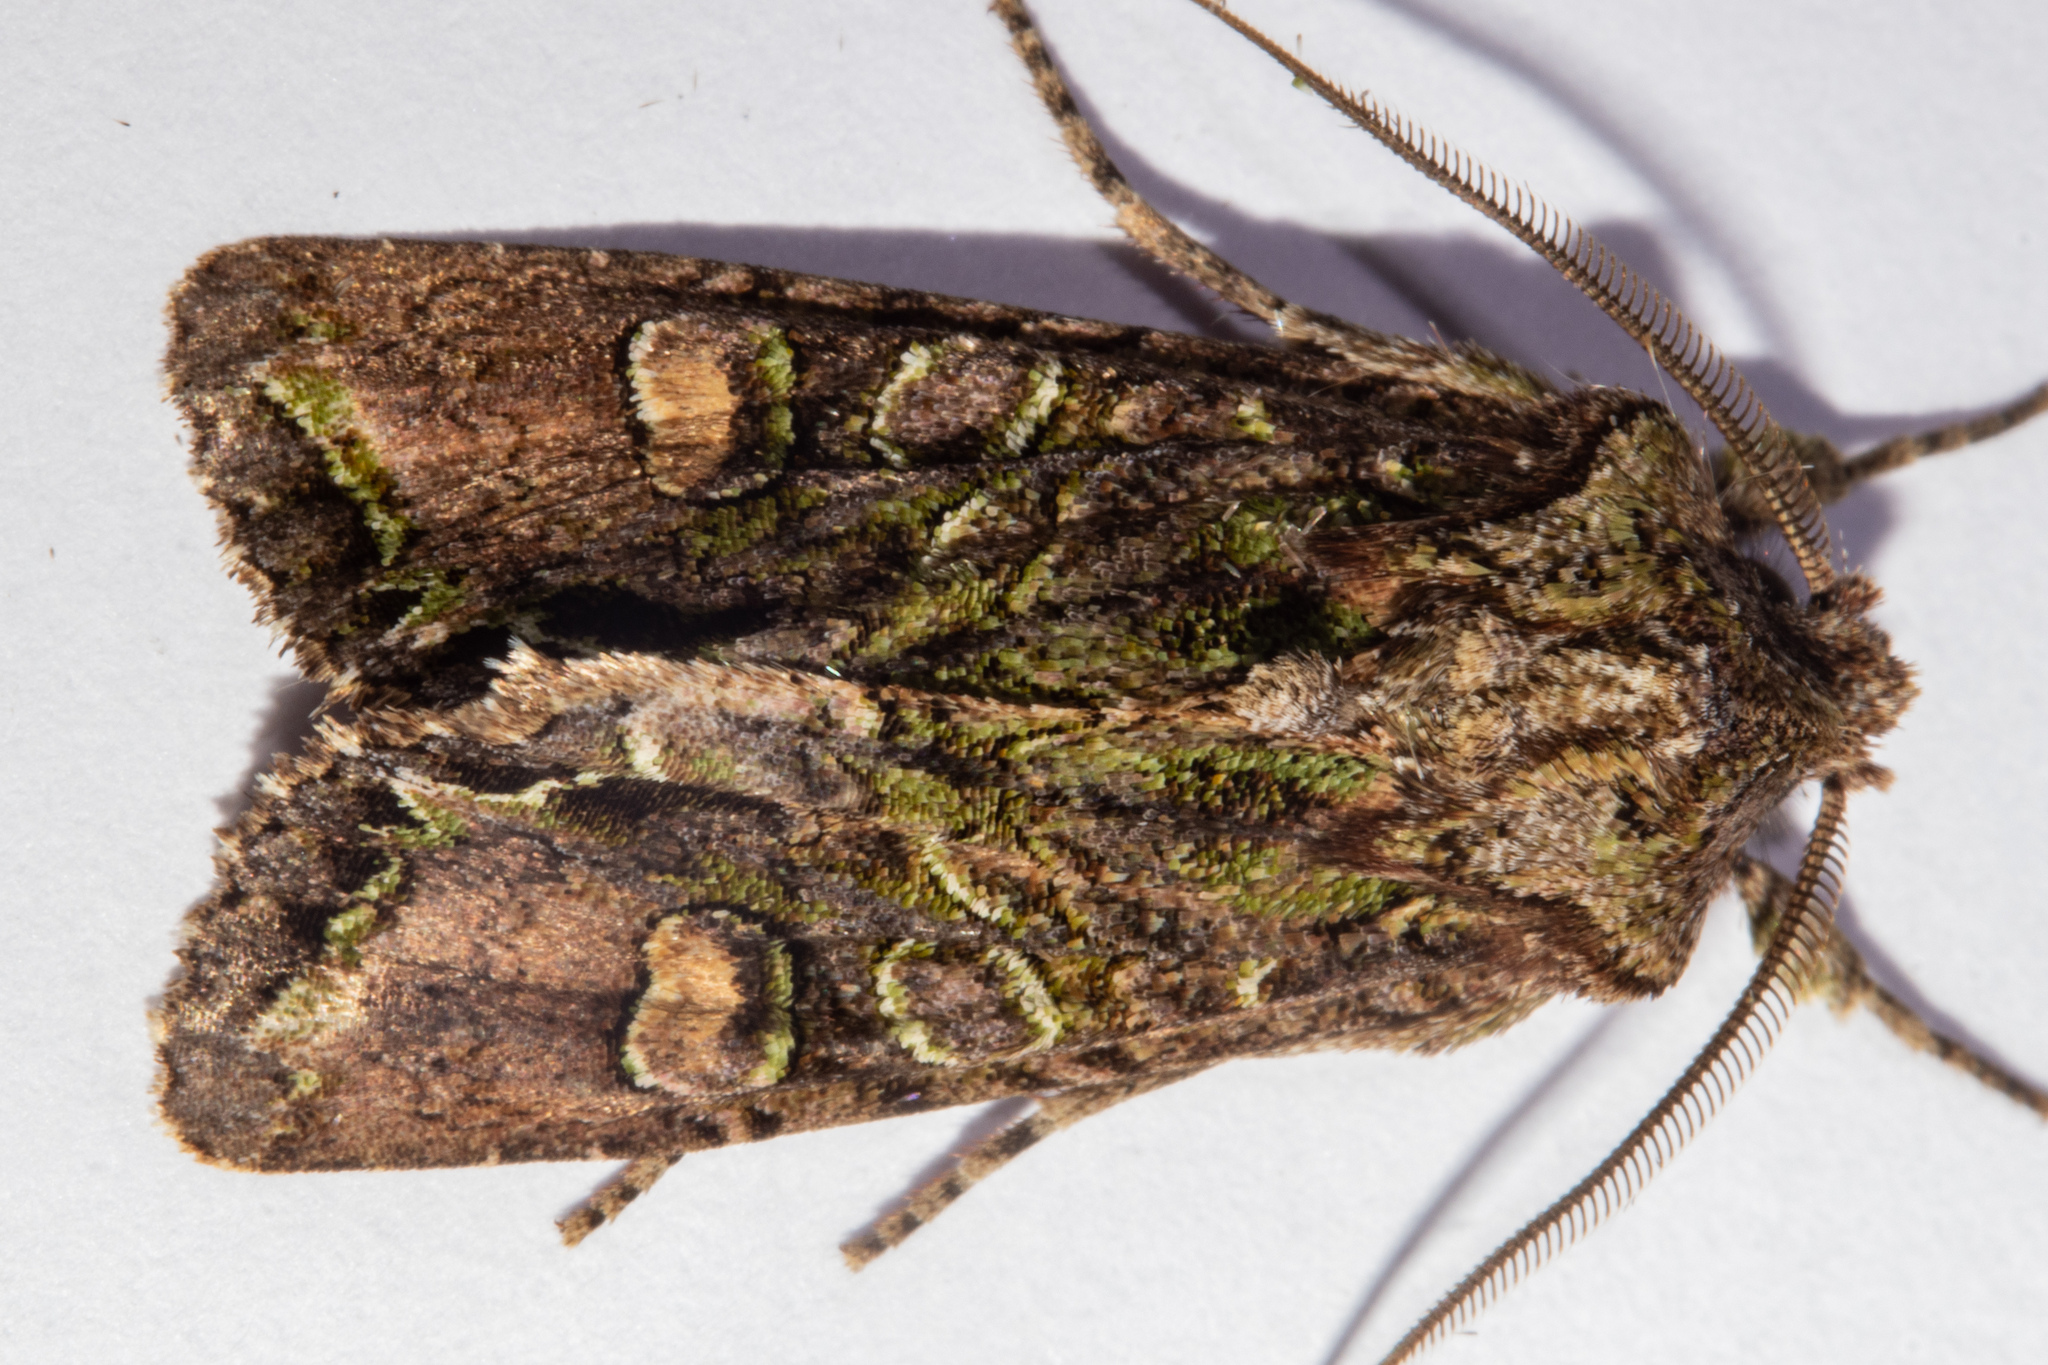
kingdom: Animalia
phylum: Arthropoda
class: Insecta
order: Lepidoptera
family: Noctuidae
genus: Ichneutica
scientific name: Ichneutica insignis
